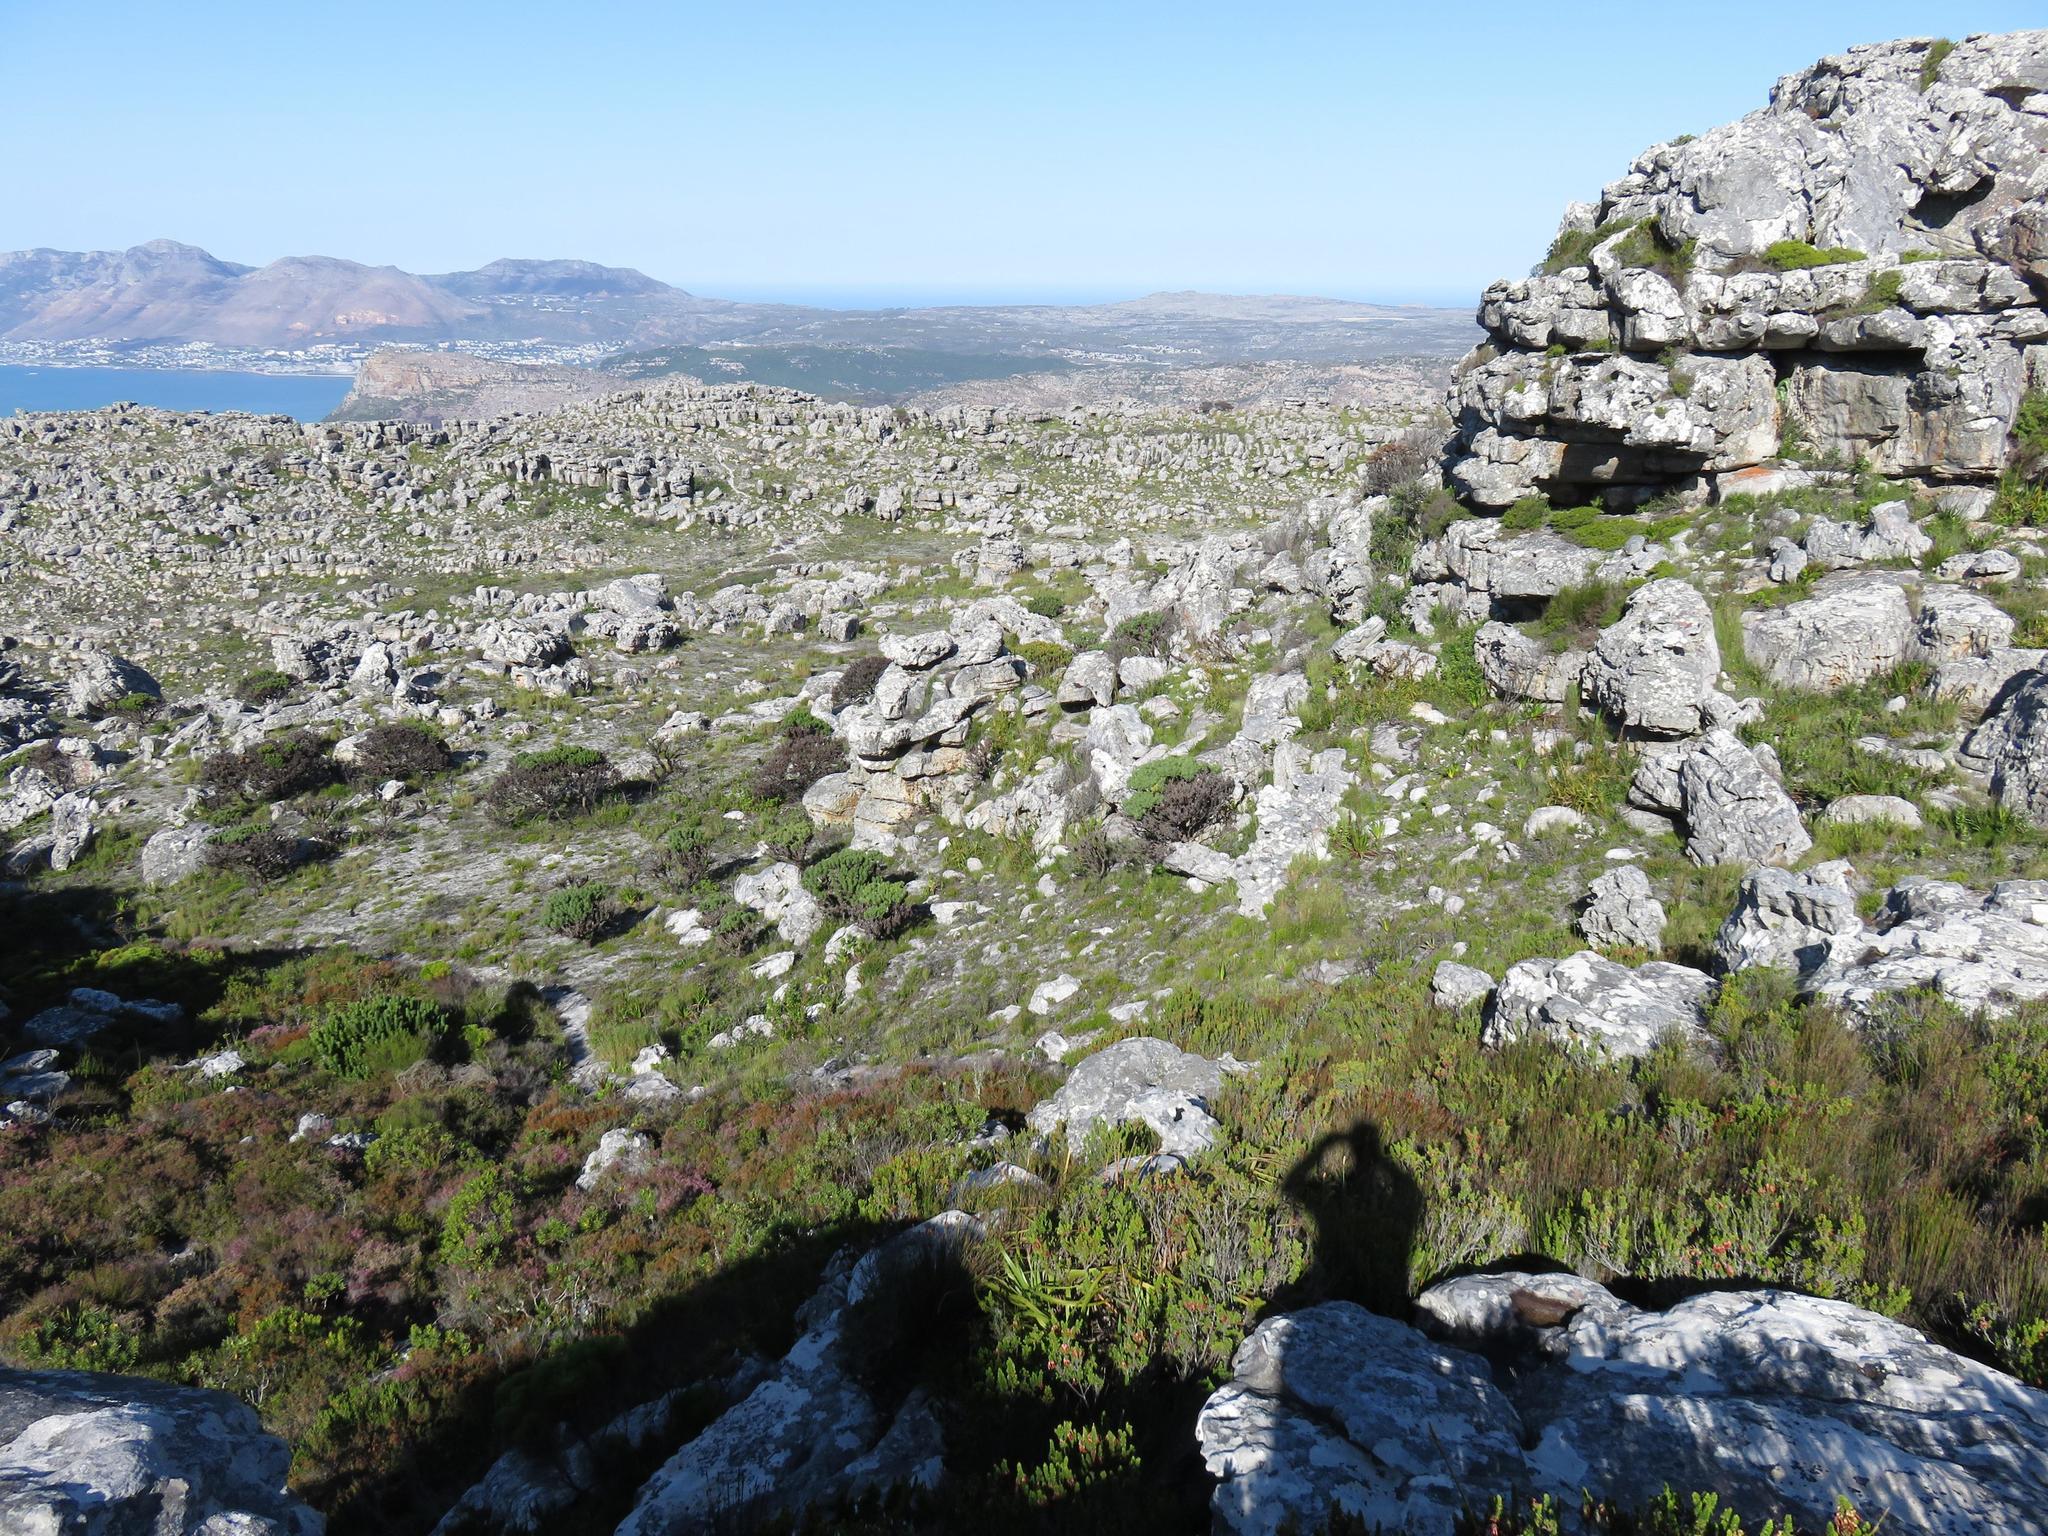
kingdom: Plantae
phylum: Tracheophyta
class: Magnoliopsida
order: Proteales
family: Proteaceae
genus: Mimetes
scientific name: Mimetes fimbriifolius
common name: Fringed bottlebrush
